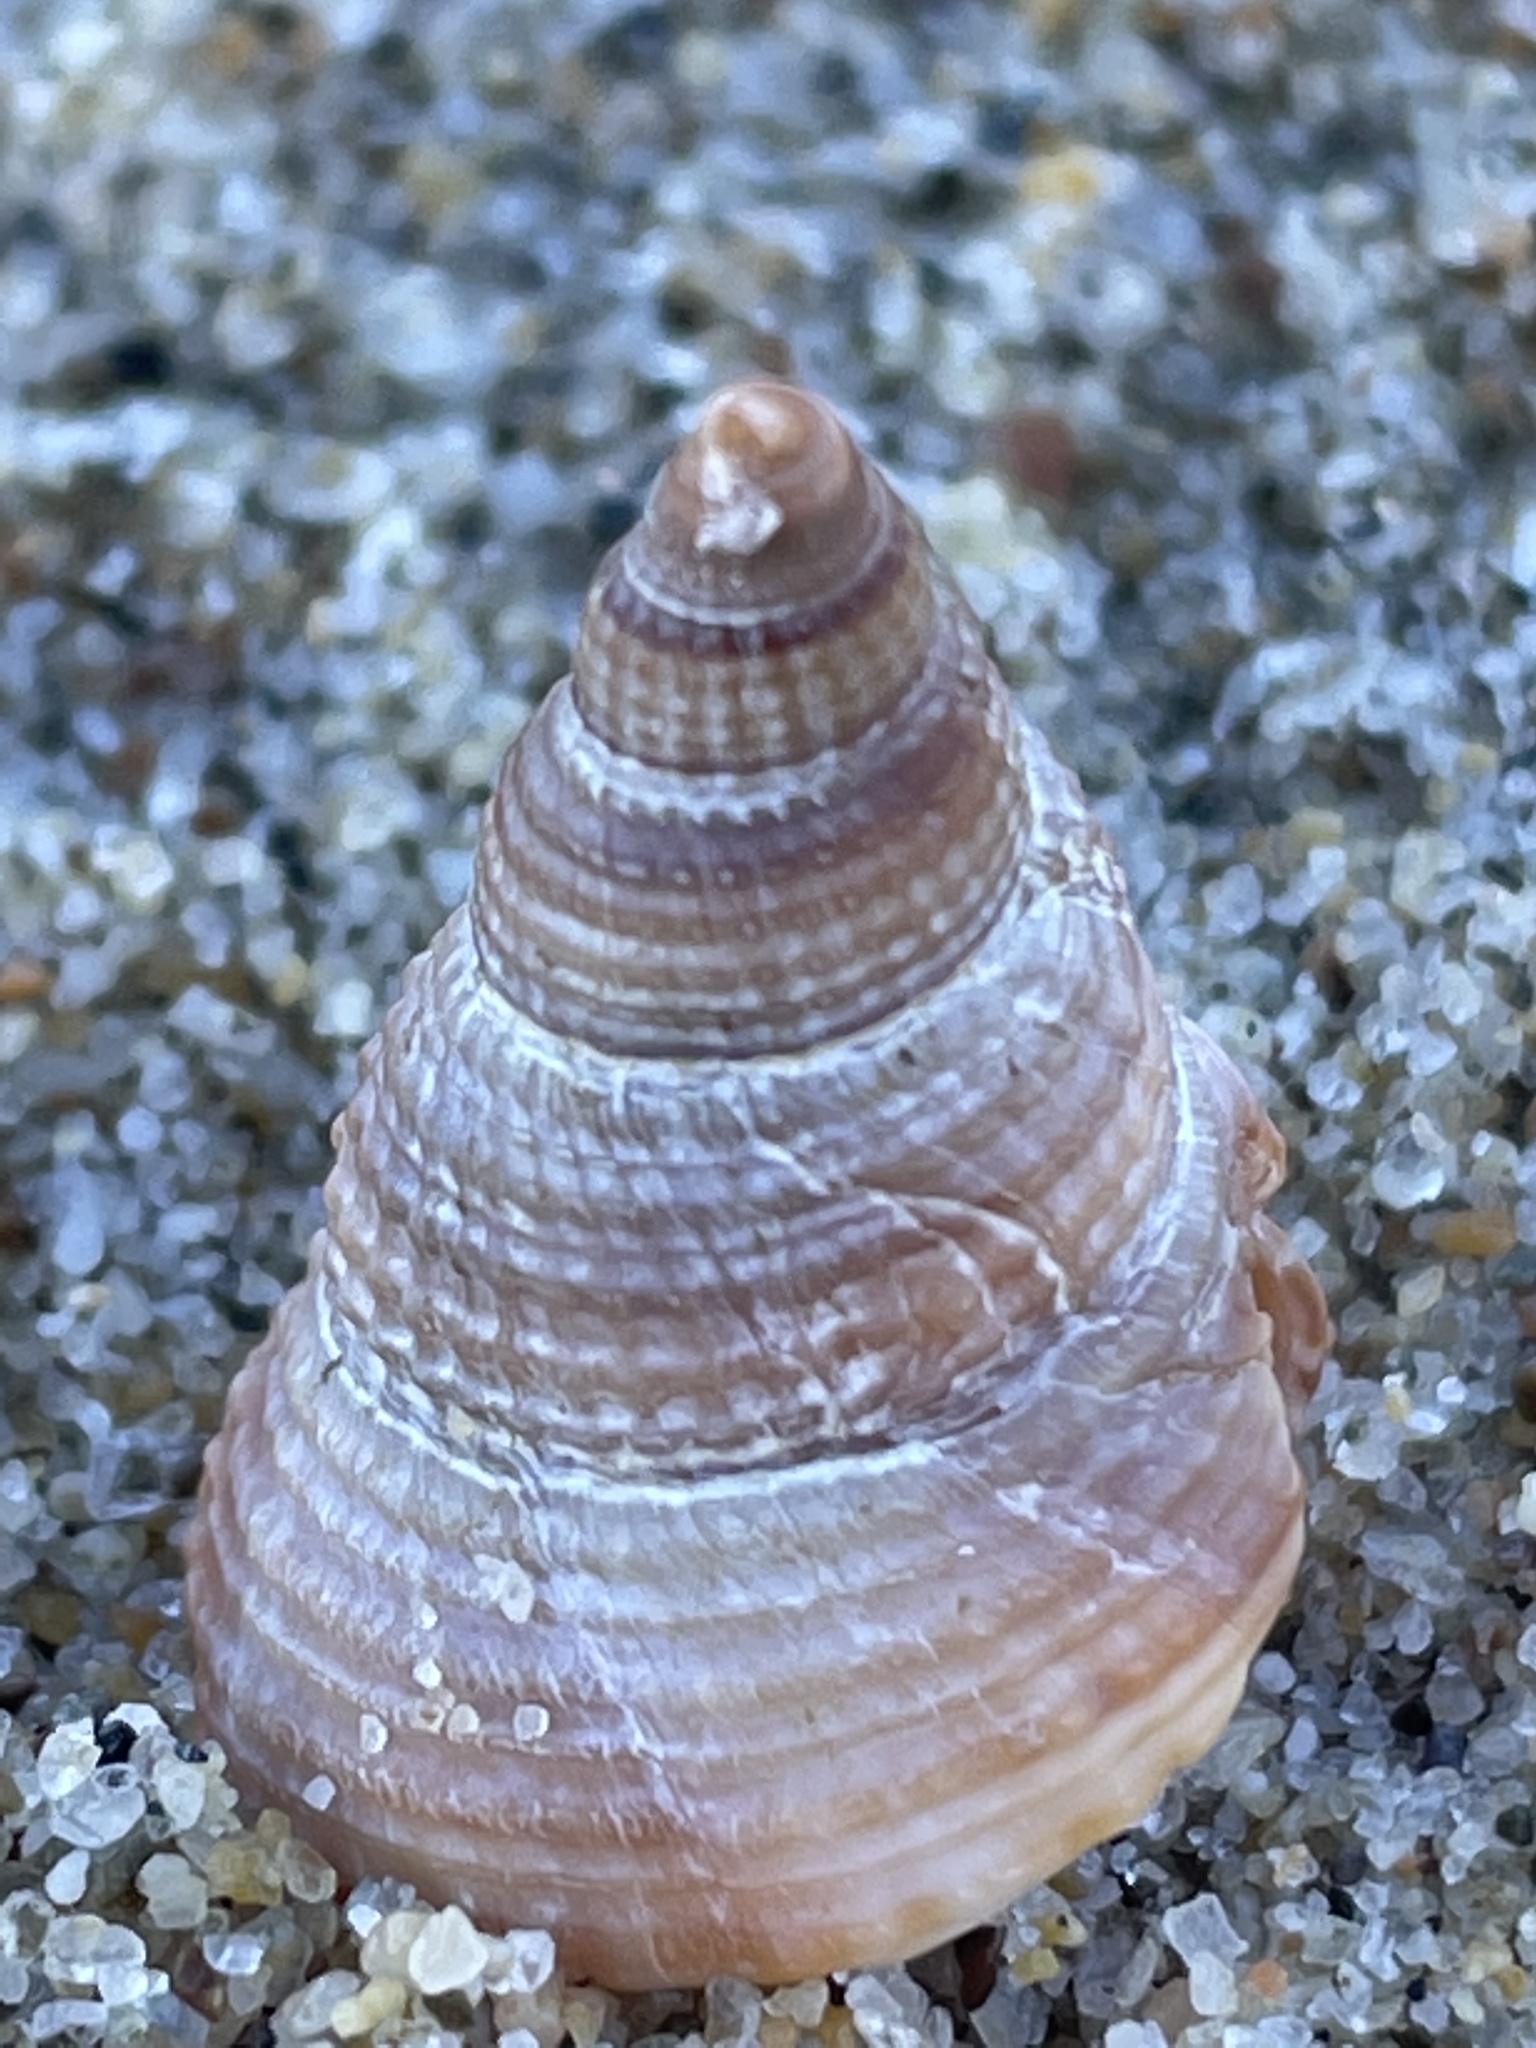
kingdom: Animalia
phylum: Mollusca
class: Gastropoda
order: Neogastropoda
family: Nassariidae
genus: Caesia
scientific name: Caesia fossata
